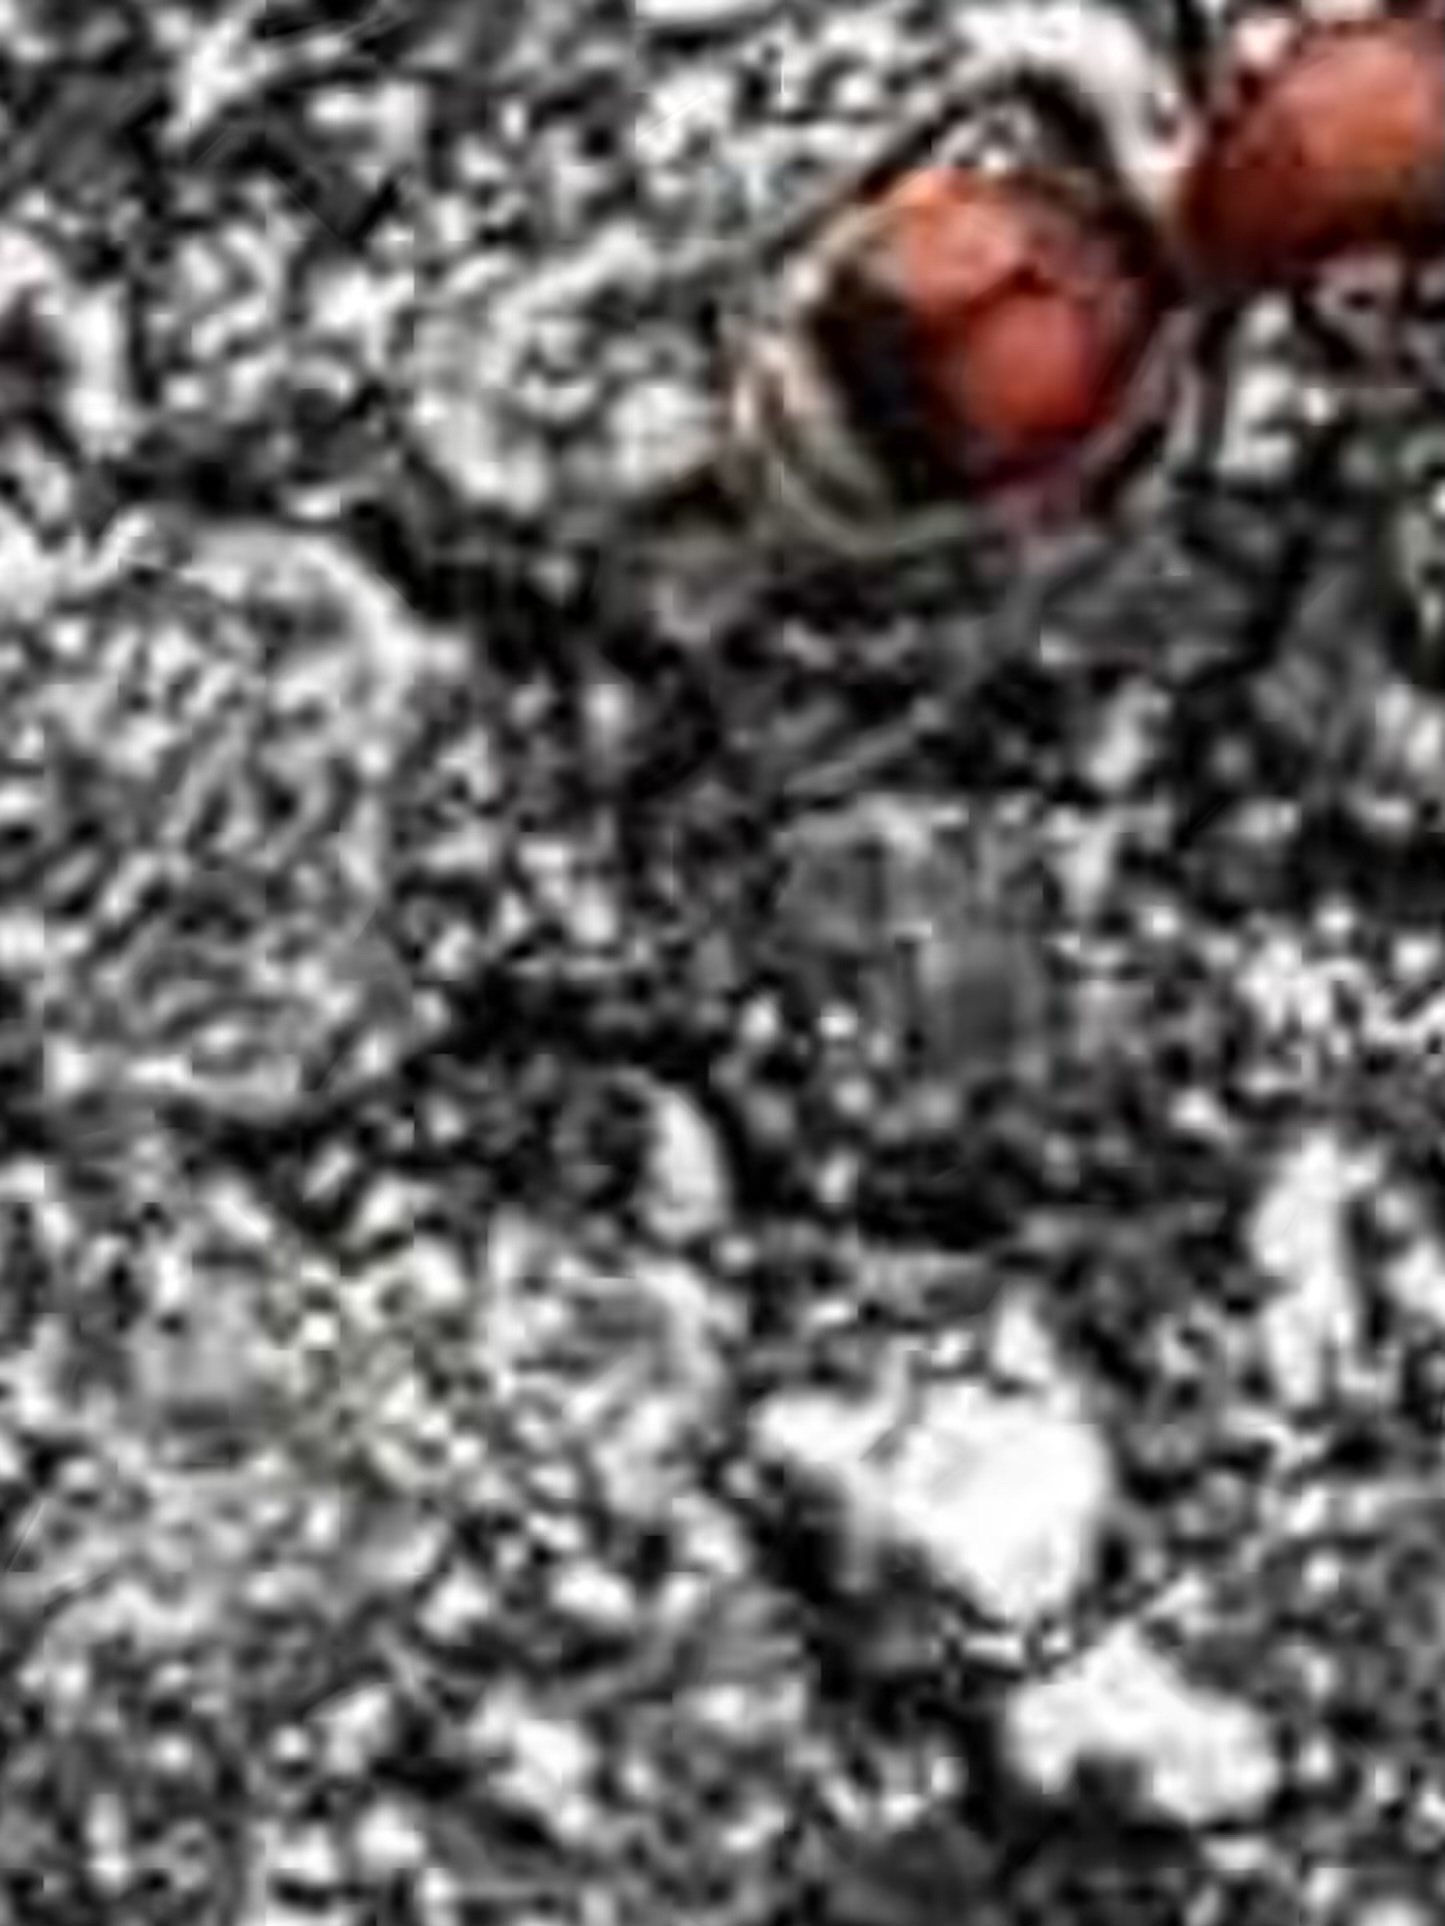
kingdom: Animalia
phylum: Arthropoda
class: Insecta
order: Hymenoptera
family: Mutillidae
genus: Dasymutilla
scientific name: Dasymutilla
